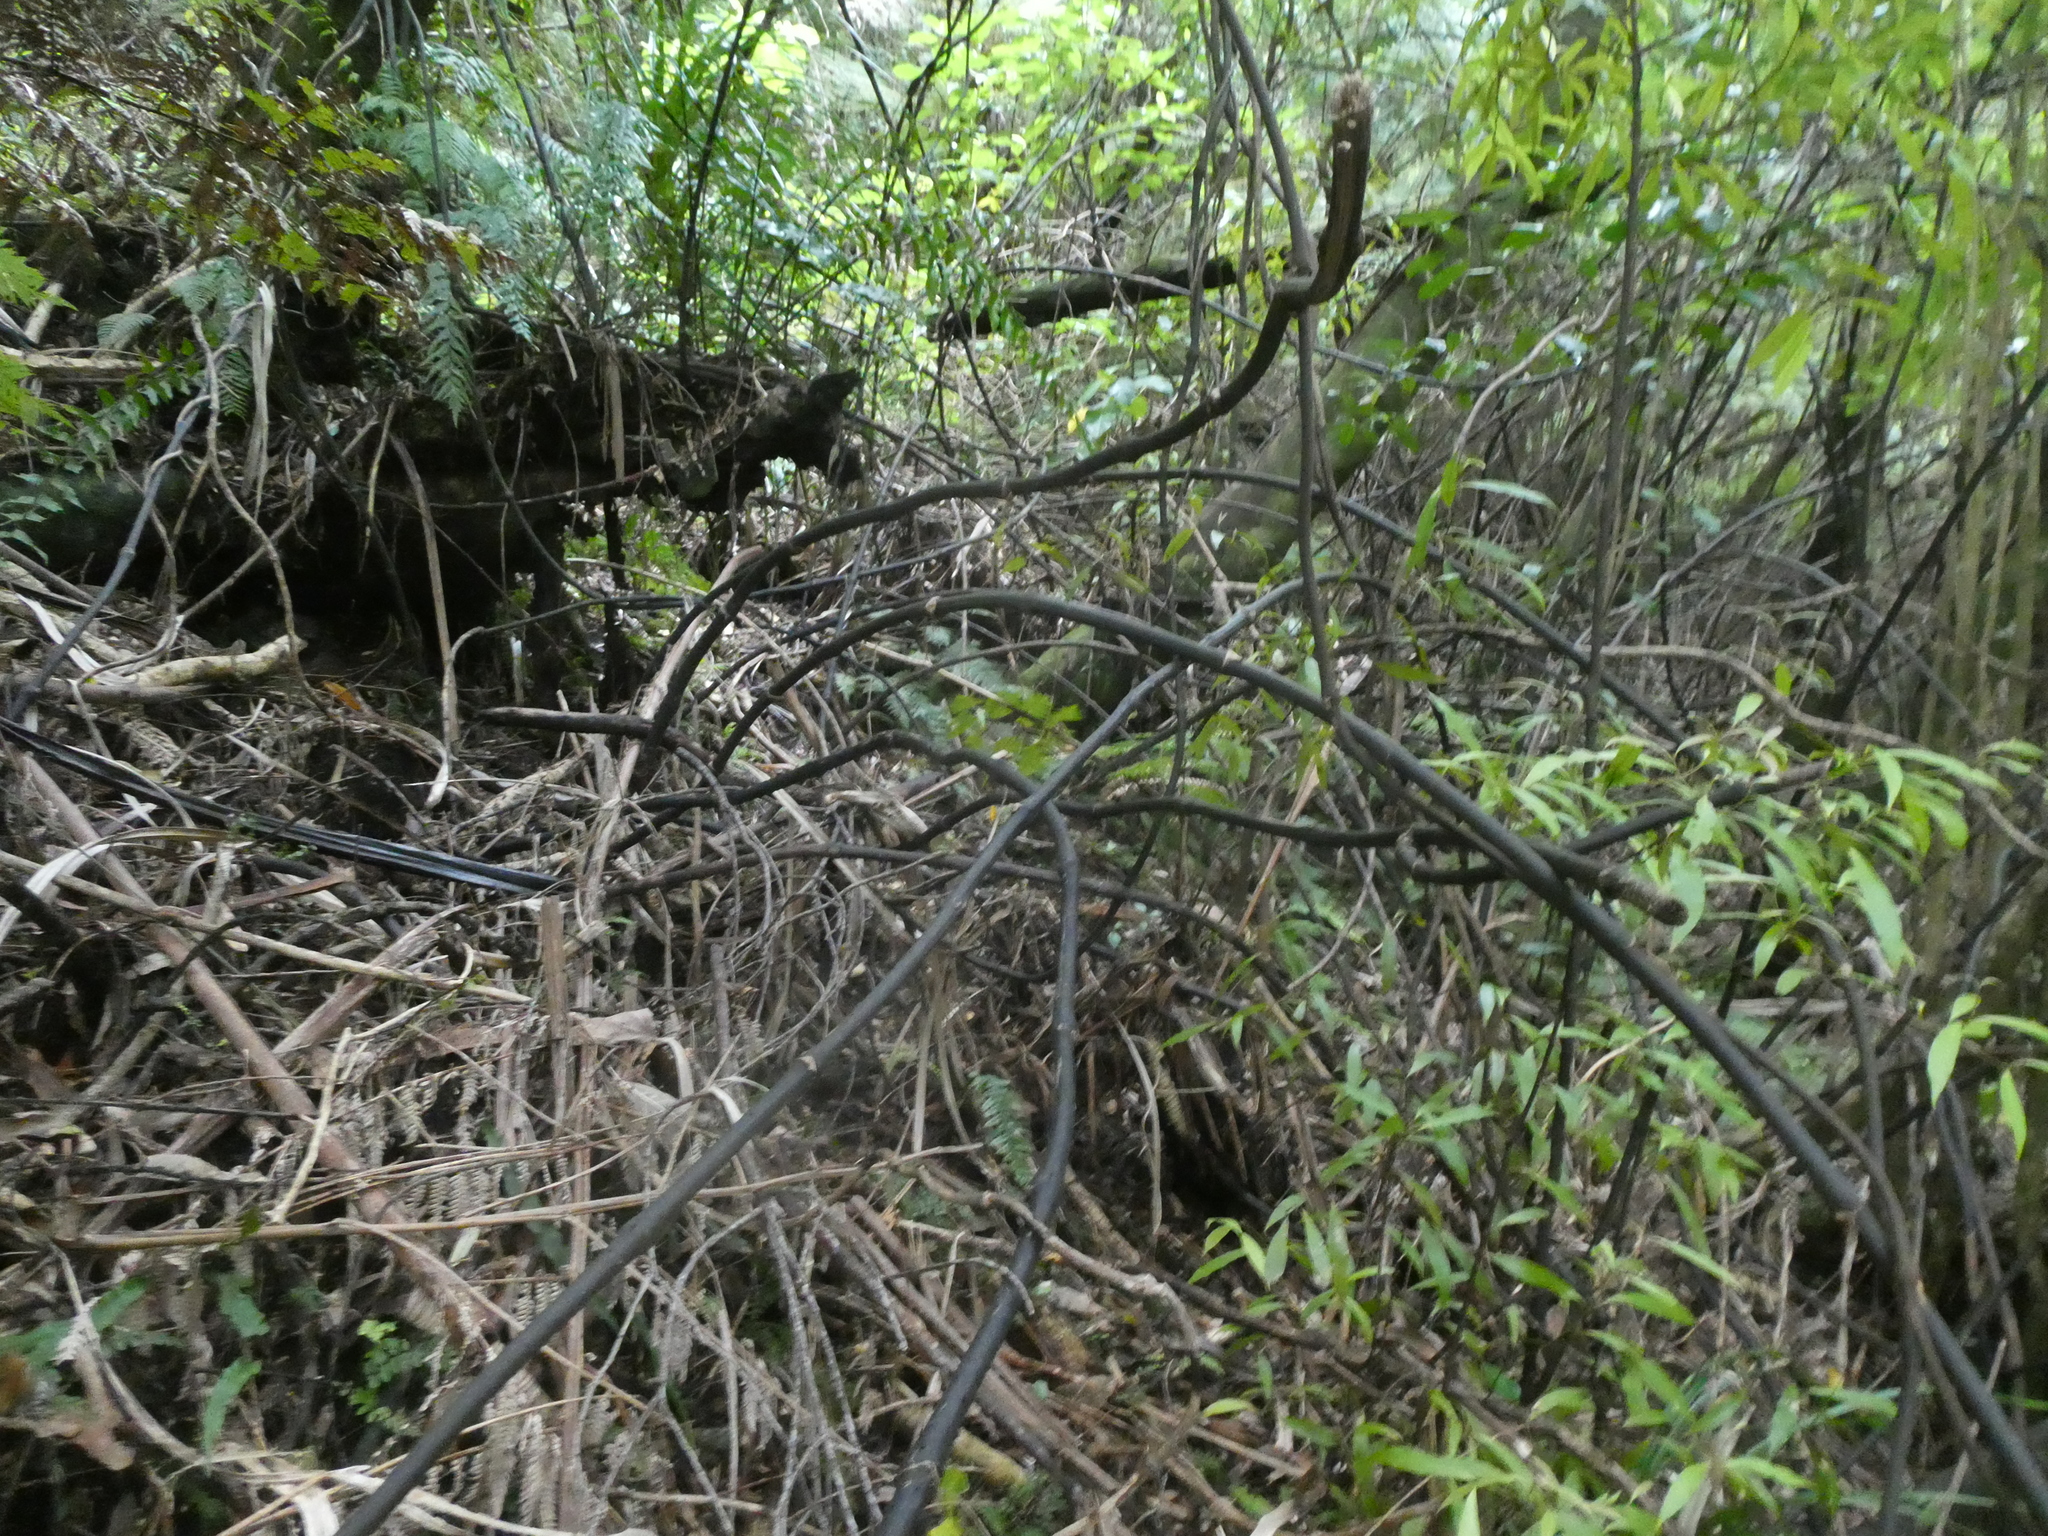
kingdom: Plantae
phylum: Tracheophyta
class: Liliopsida
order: Liliales
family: Ripogonaceae
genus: Ripogonum
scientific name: Ripogonum scandens
